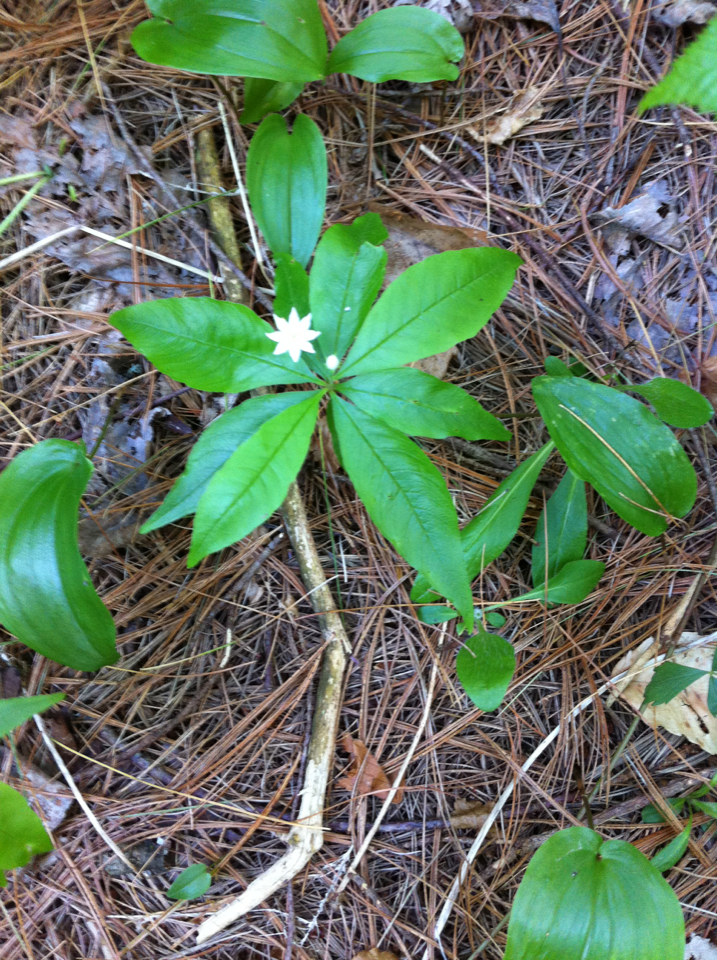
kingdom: Plantae
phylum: Tracheophyta
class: Magnoliopsida
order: Ericales
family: Primulaceae
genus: Lysimachia
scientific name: Lysimachia borealis
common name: American starflower
